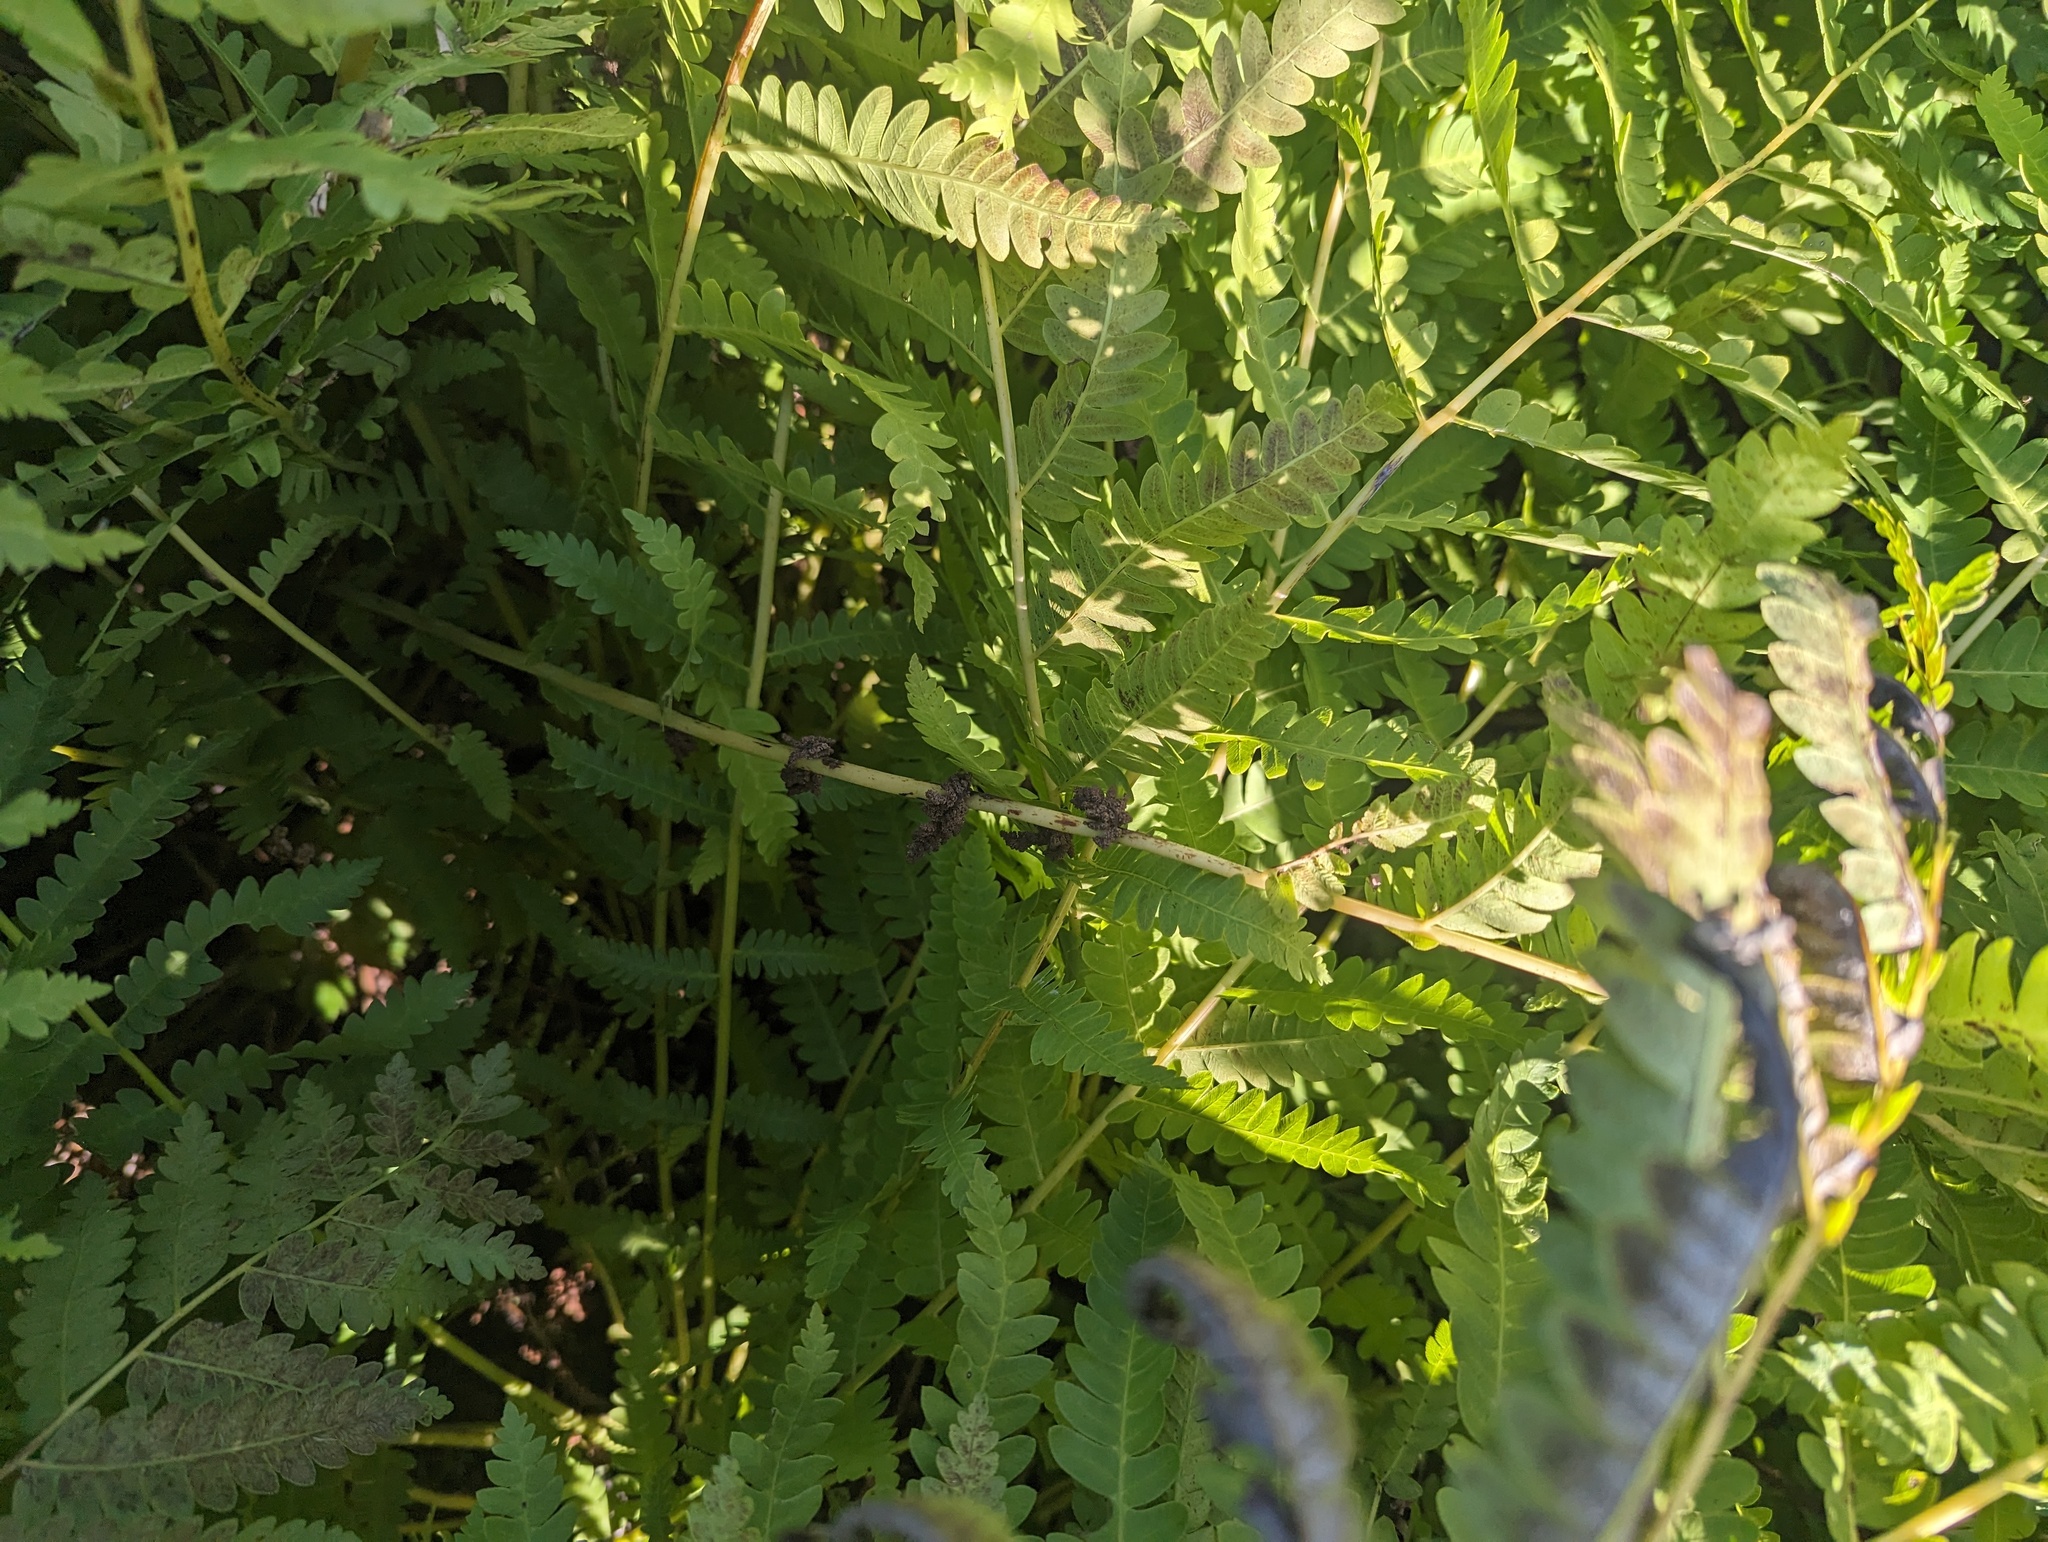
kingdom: Plantae
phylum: Tracheophyta
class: Polypodiopsida
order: Osmundales
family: Osmundaceae
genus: Claytosmunda
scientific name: Claytosmunda claytoniana
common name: Clayton's fern
